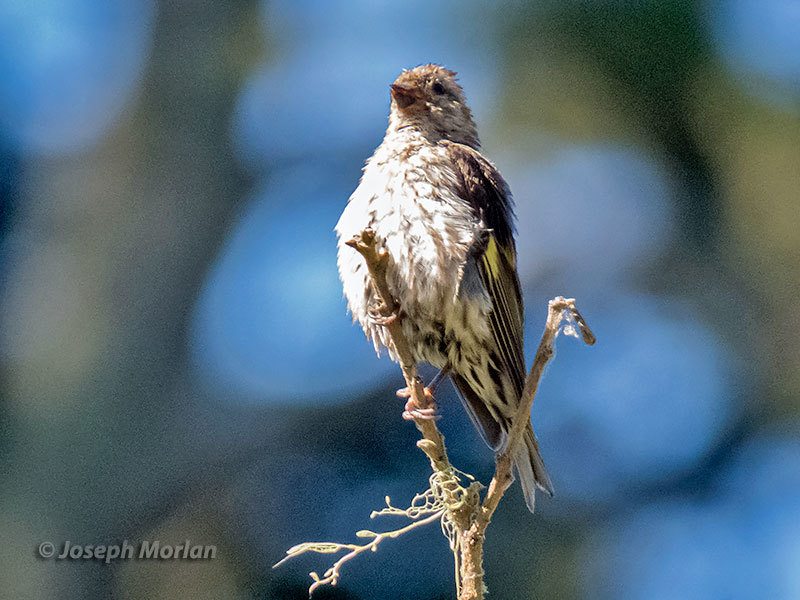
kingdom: Animalia
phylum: Chordata
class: Aves
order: Passeriformes
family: Fringillidae
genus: Spinus
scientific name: Spinus pinus
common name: Pine siskin
